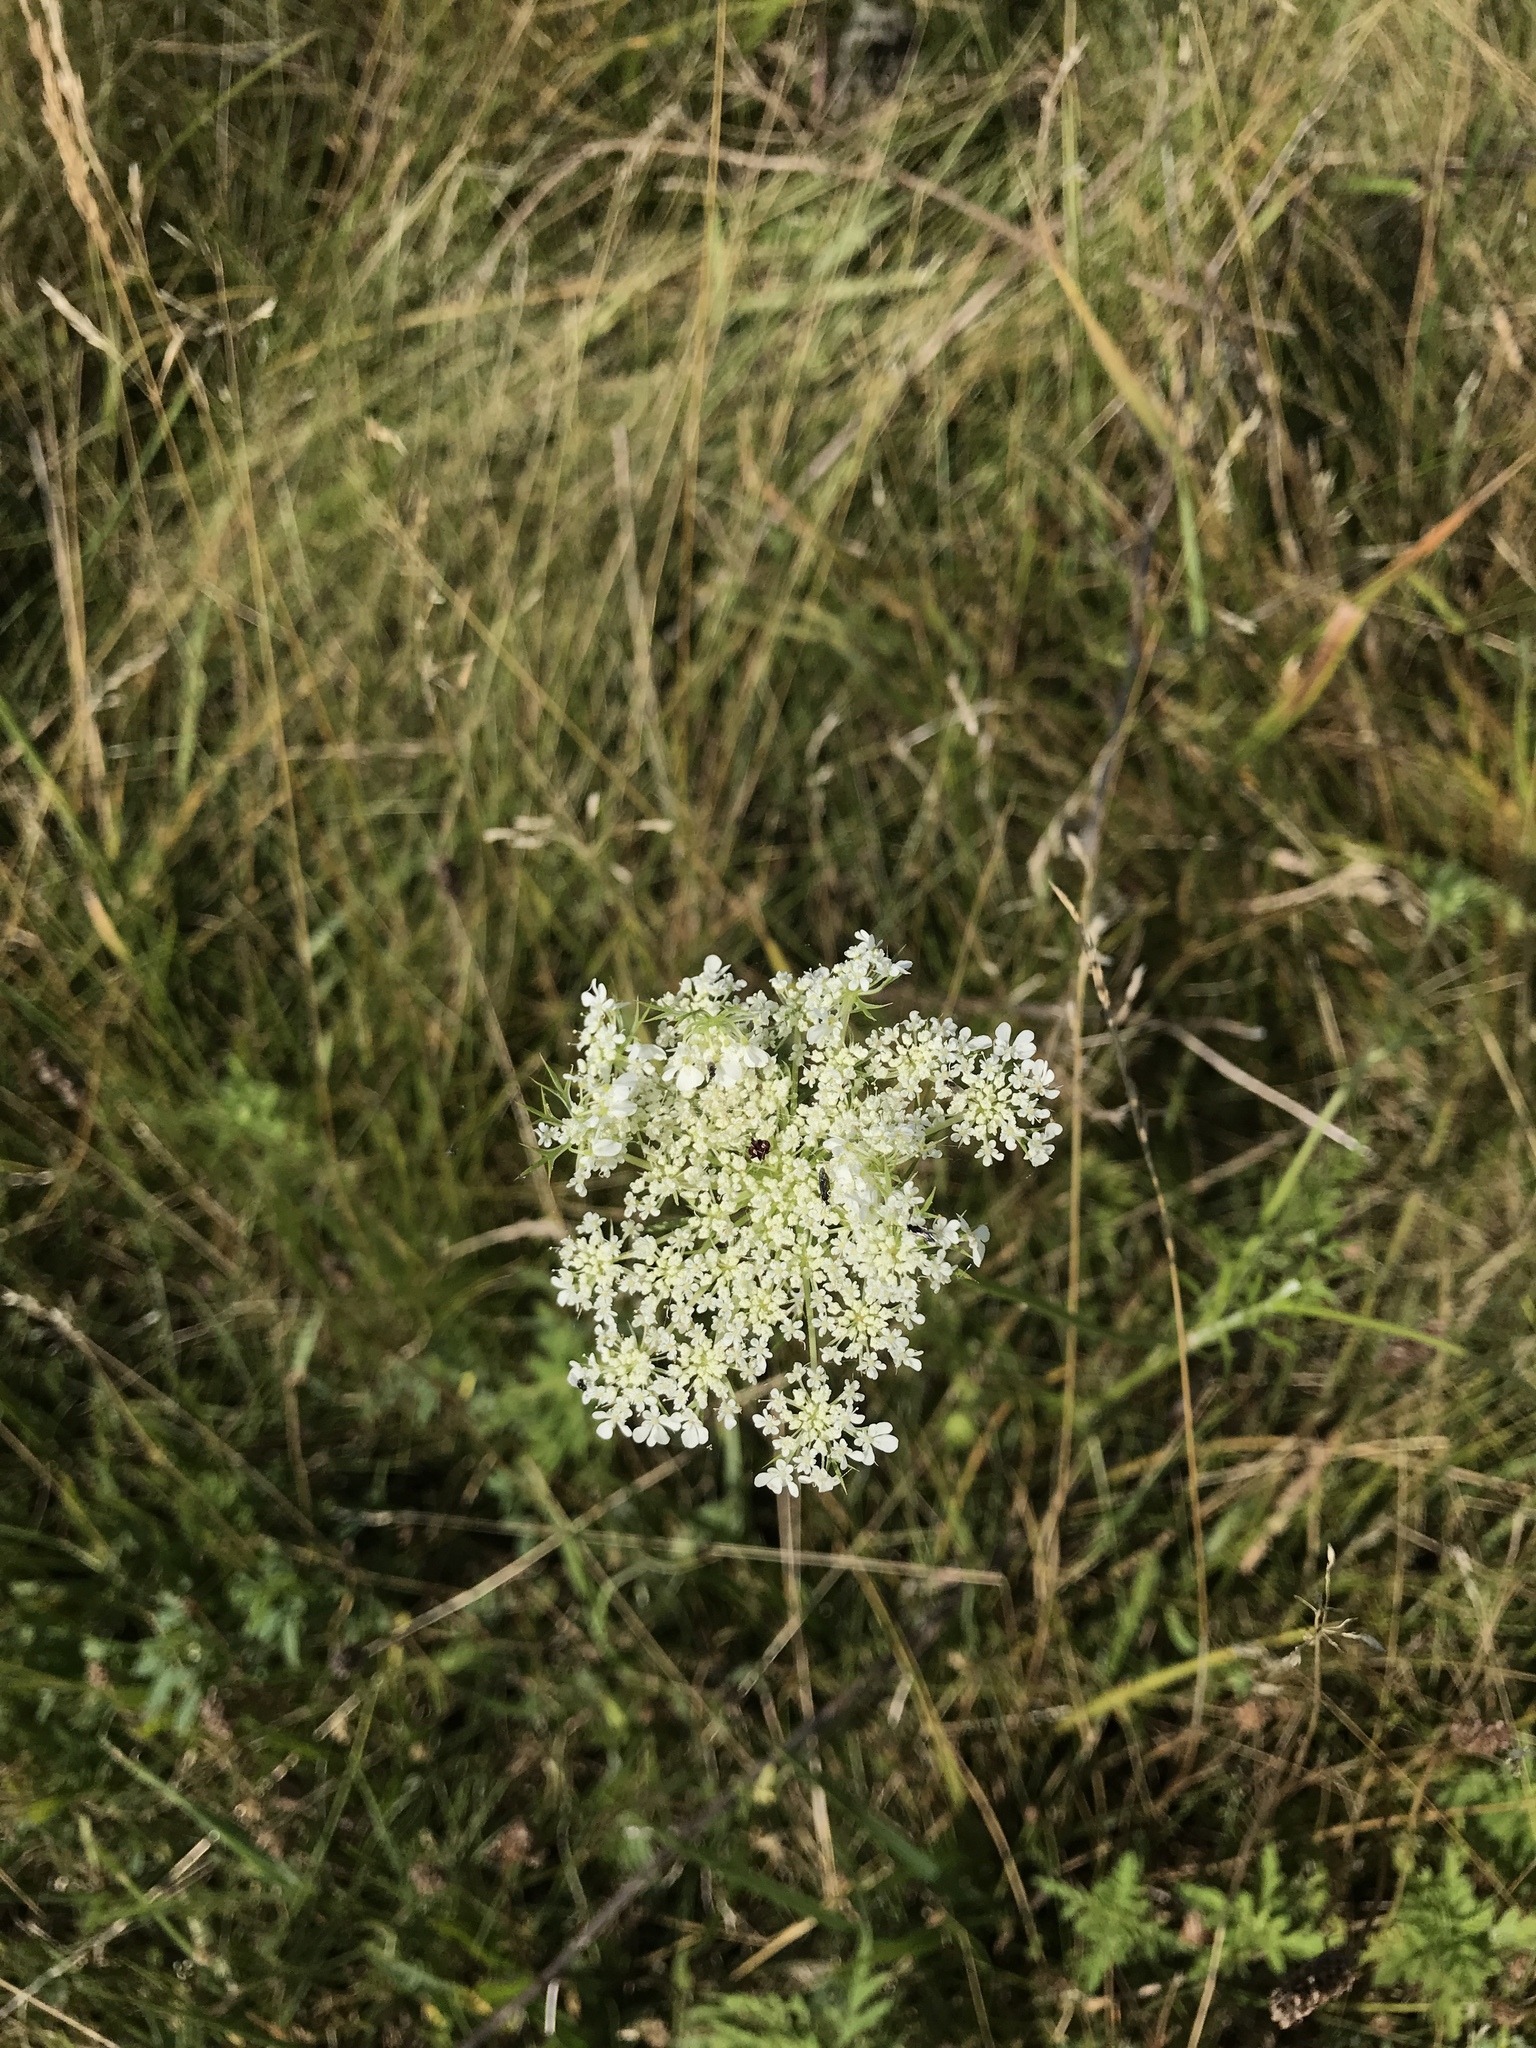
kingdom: Plantae
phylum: Tracheophyta
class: Magnoliopsida
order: Apiales
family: Apiaceae
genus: Daucus
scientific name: Daucus carota
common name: Wild carrot
